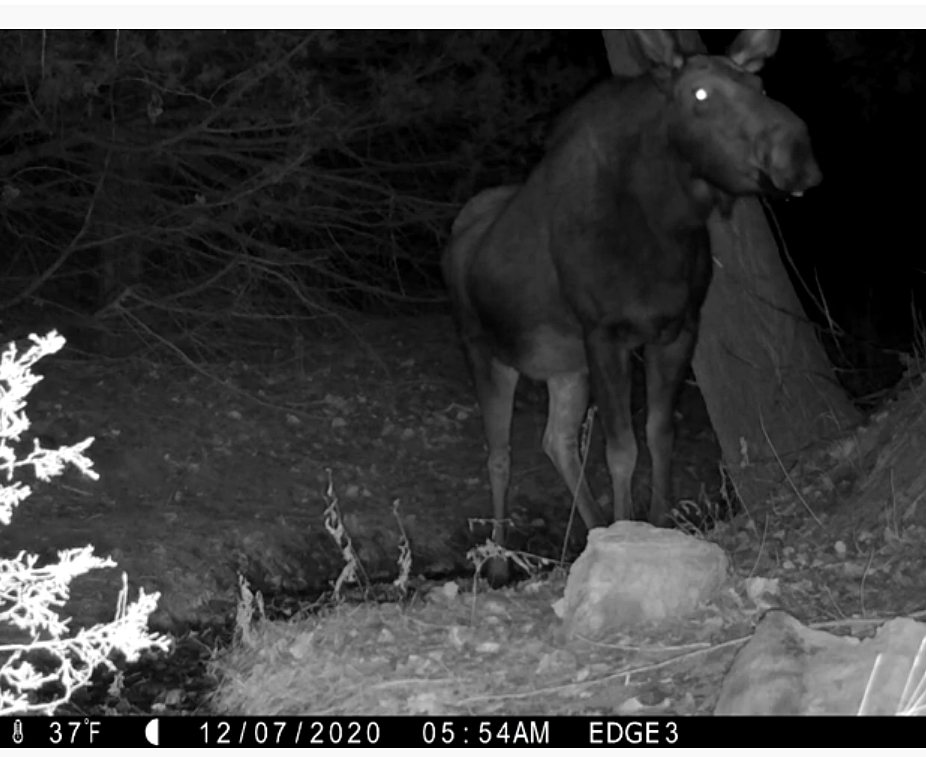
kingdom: Animalia
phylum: Chordata
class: Mammalia
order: Artiodactyla
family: Cervidae
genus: Alces
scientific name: Alces alces
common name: Moose
